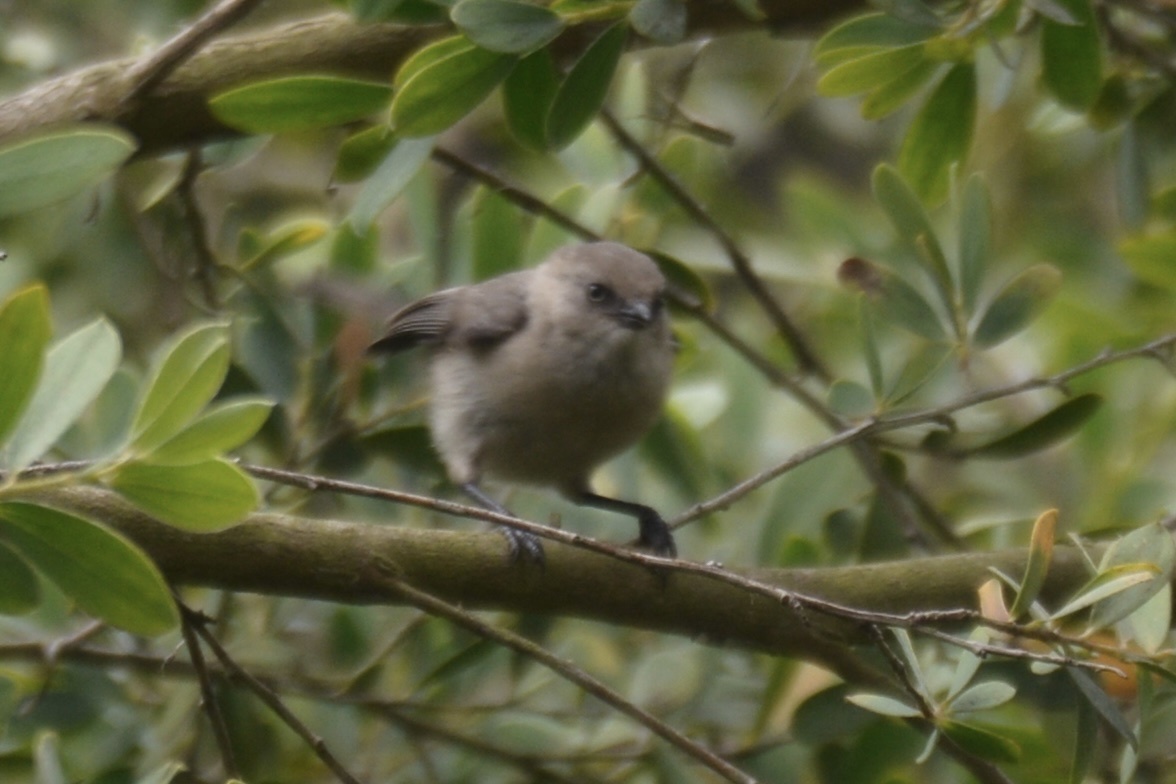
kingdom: Animalia
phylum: Chordata
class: Aves
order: Passeriformes
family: Aegithalidae
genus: Psaltriparus
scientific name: Psaltriparus minimus
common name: American bushtit
